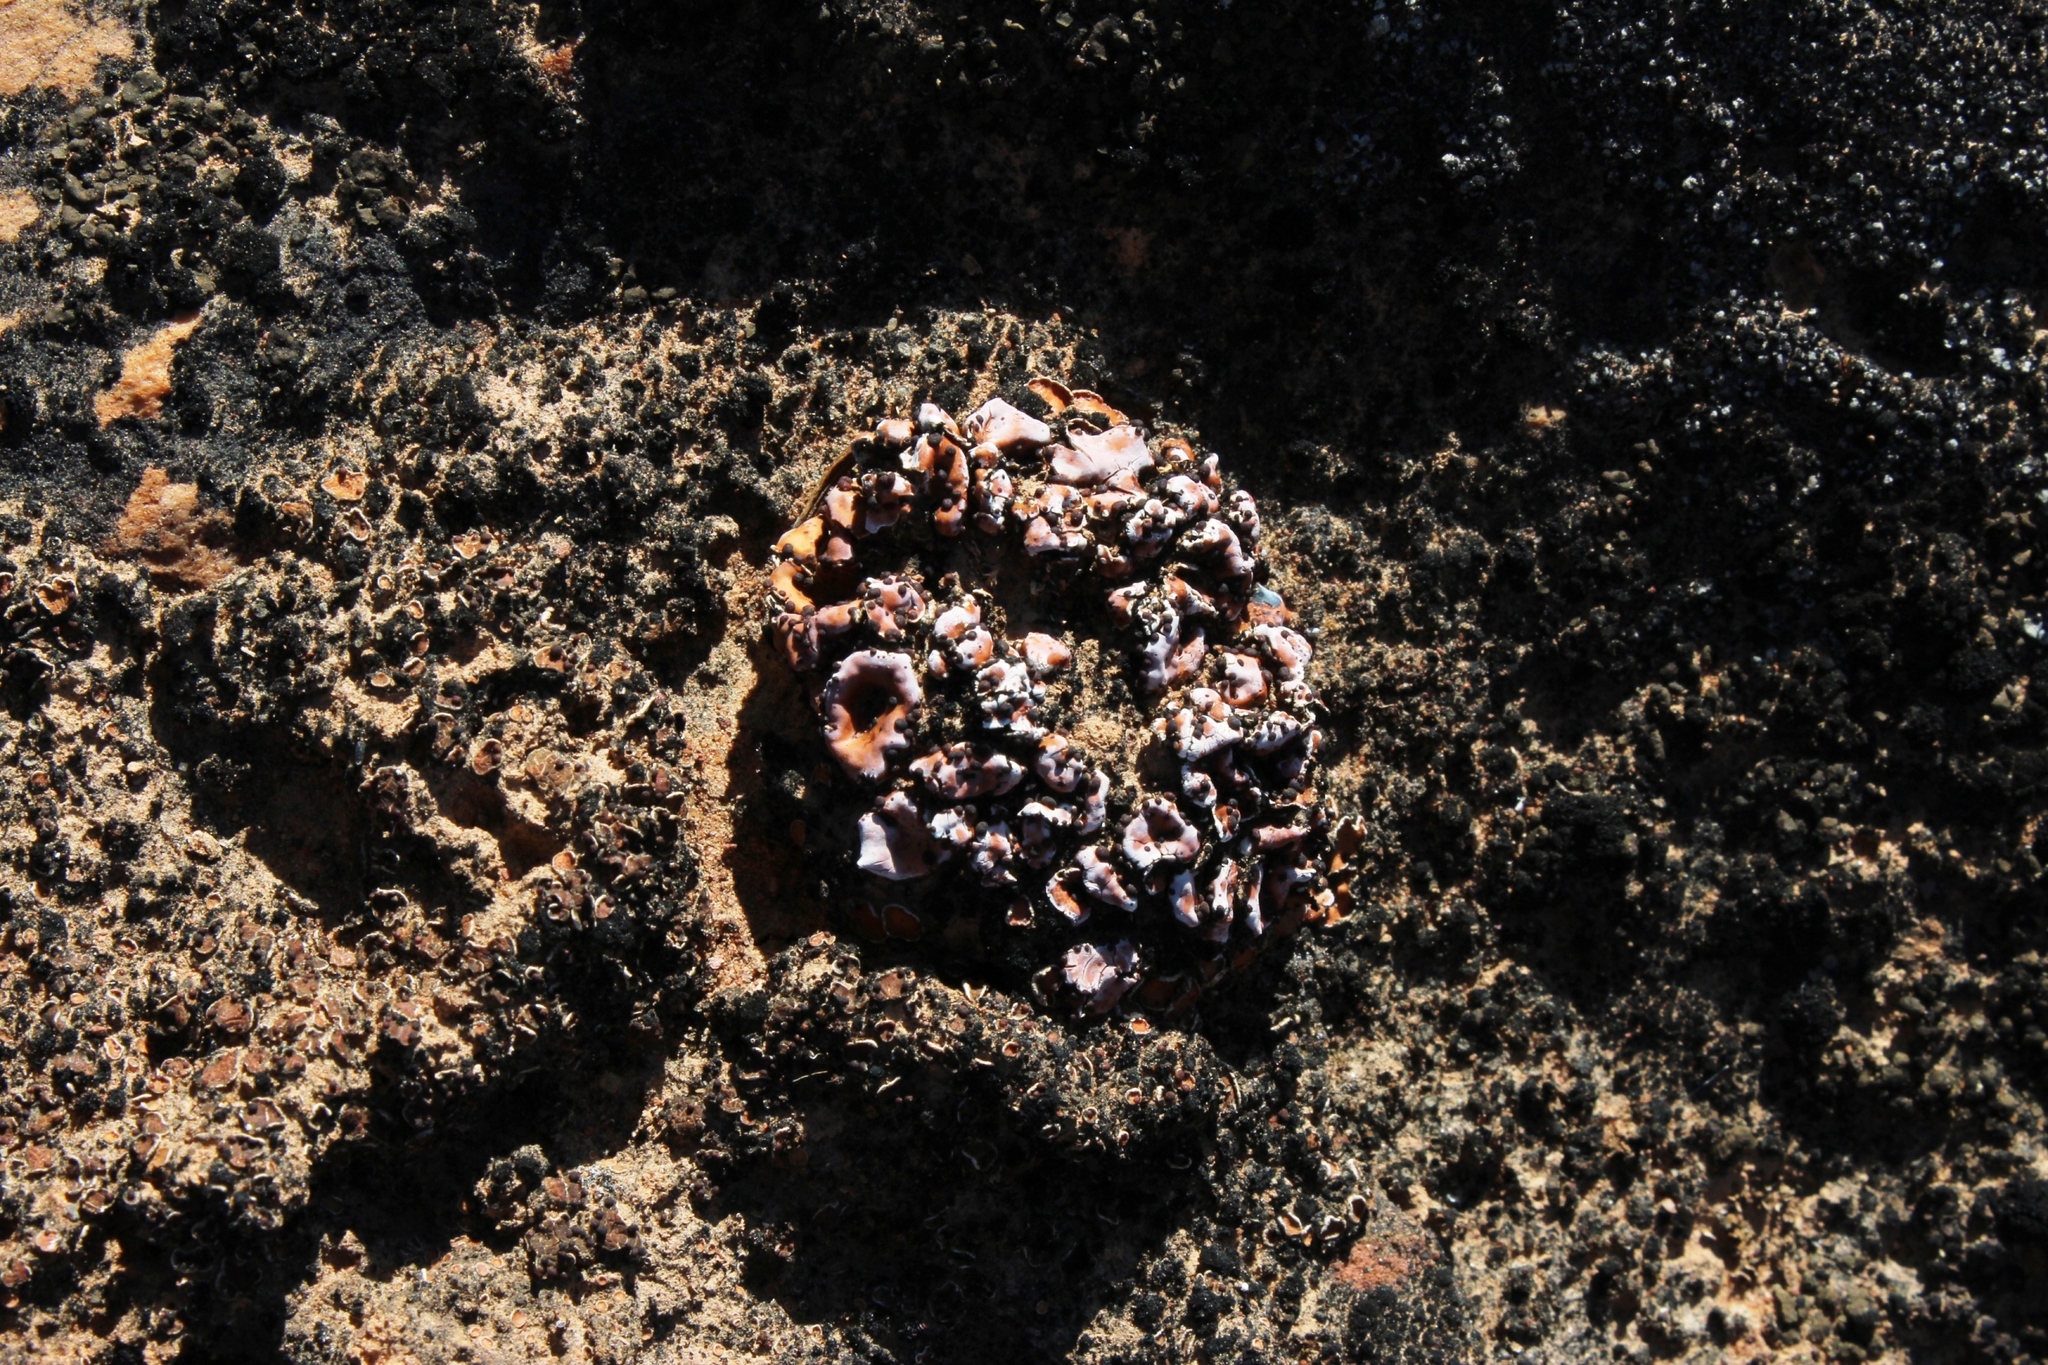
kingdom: Fungi
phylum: Ascomycota
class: Lecanoromycetes
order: Lecanorales
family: Psoraceae
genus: Psora
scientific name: Psora crenata
